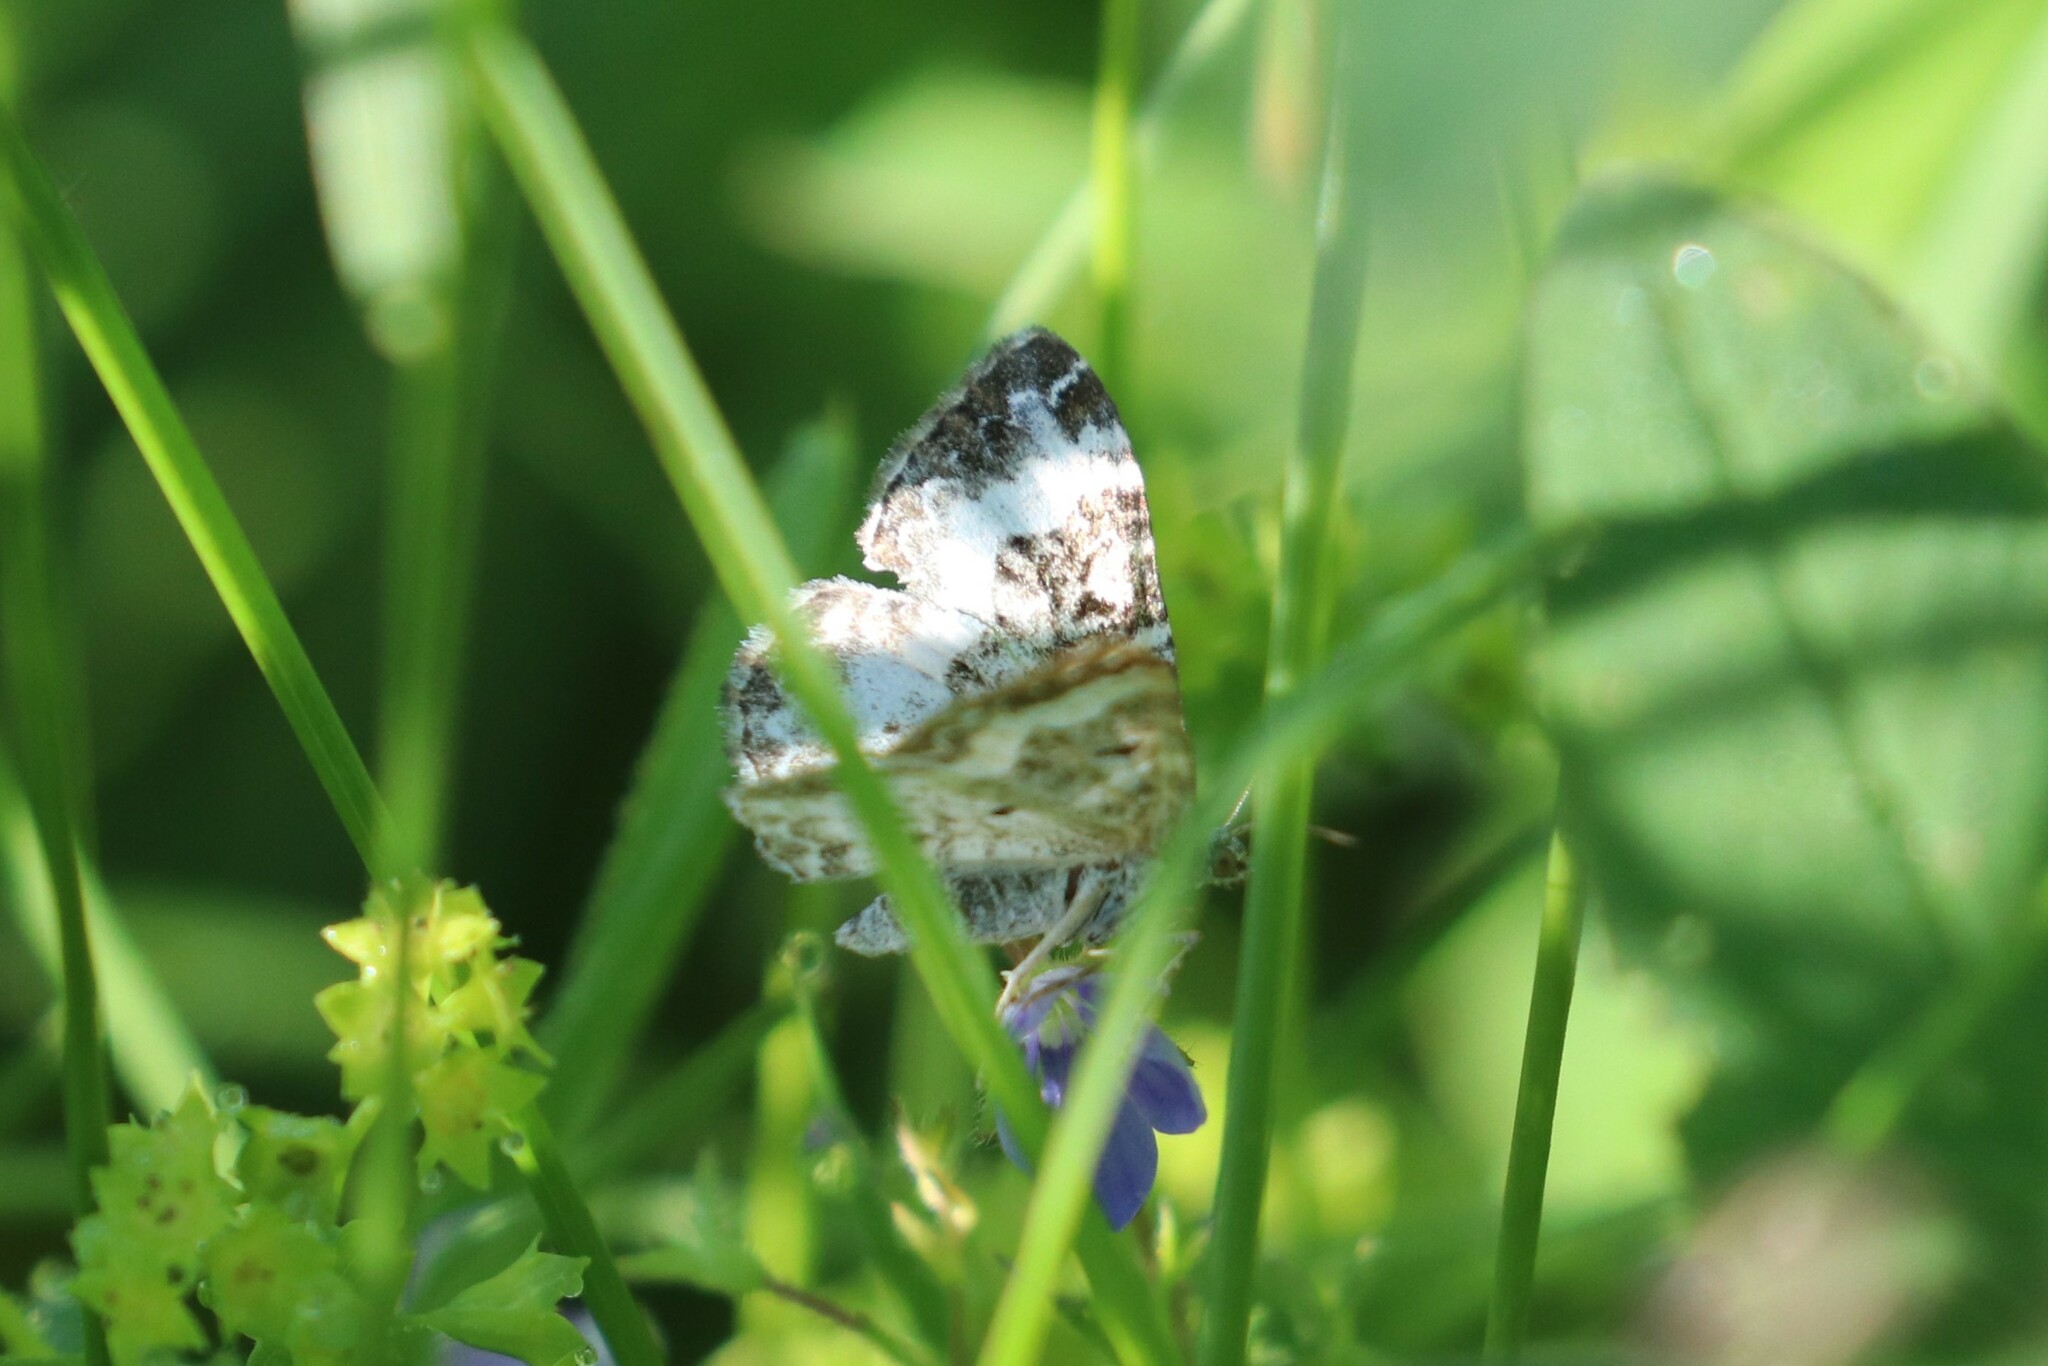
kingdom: Animalia
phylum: Arthropoda
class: Insecta
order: Lepidoptera
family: Geometridae
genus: Epirrhoe
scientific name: Epirrhoe alternata
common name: Common carpet
